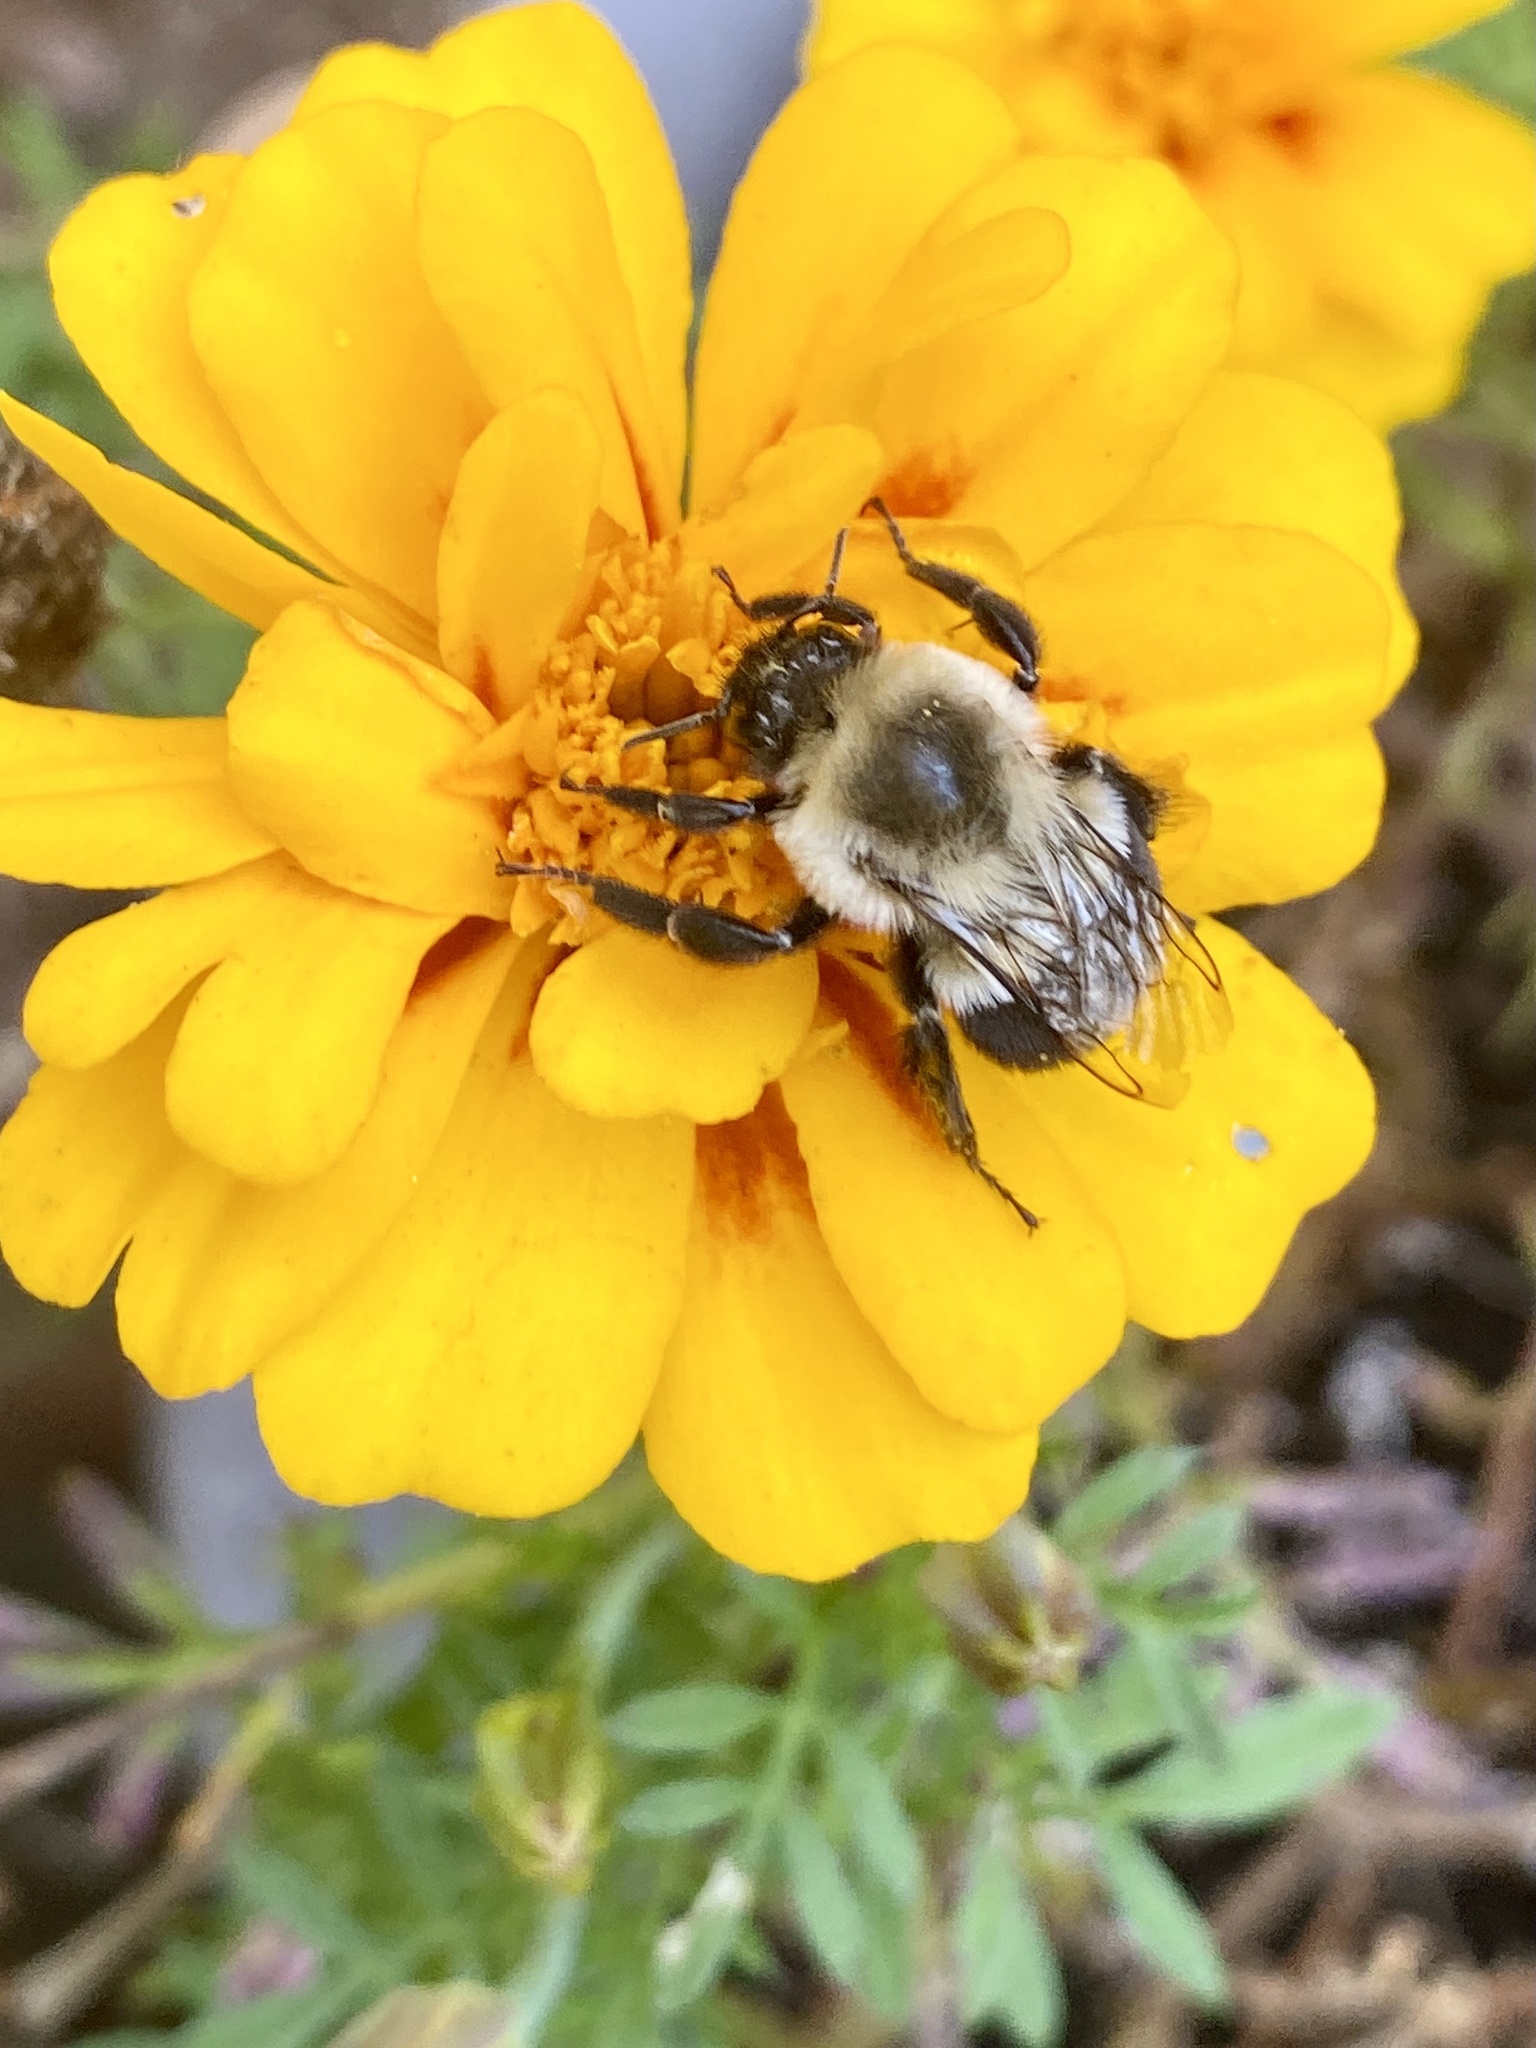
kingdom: Animalia
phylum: Arthropoda
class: Insecta
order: Hymenoptera
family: Apidae
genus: Bombus
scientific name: Bombus impatiens
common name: Common eastern bumble bee
